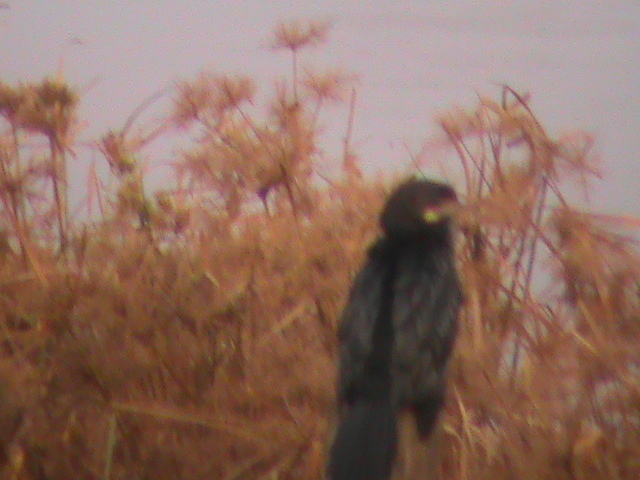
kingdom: Animalia
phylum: Chordata
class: Aves
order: Suliformes
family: Phalacrocoracidae
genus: Microcarbo
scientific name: Microcarbo niger
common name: Little cormorant
